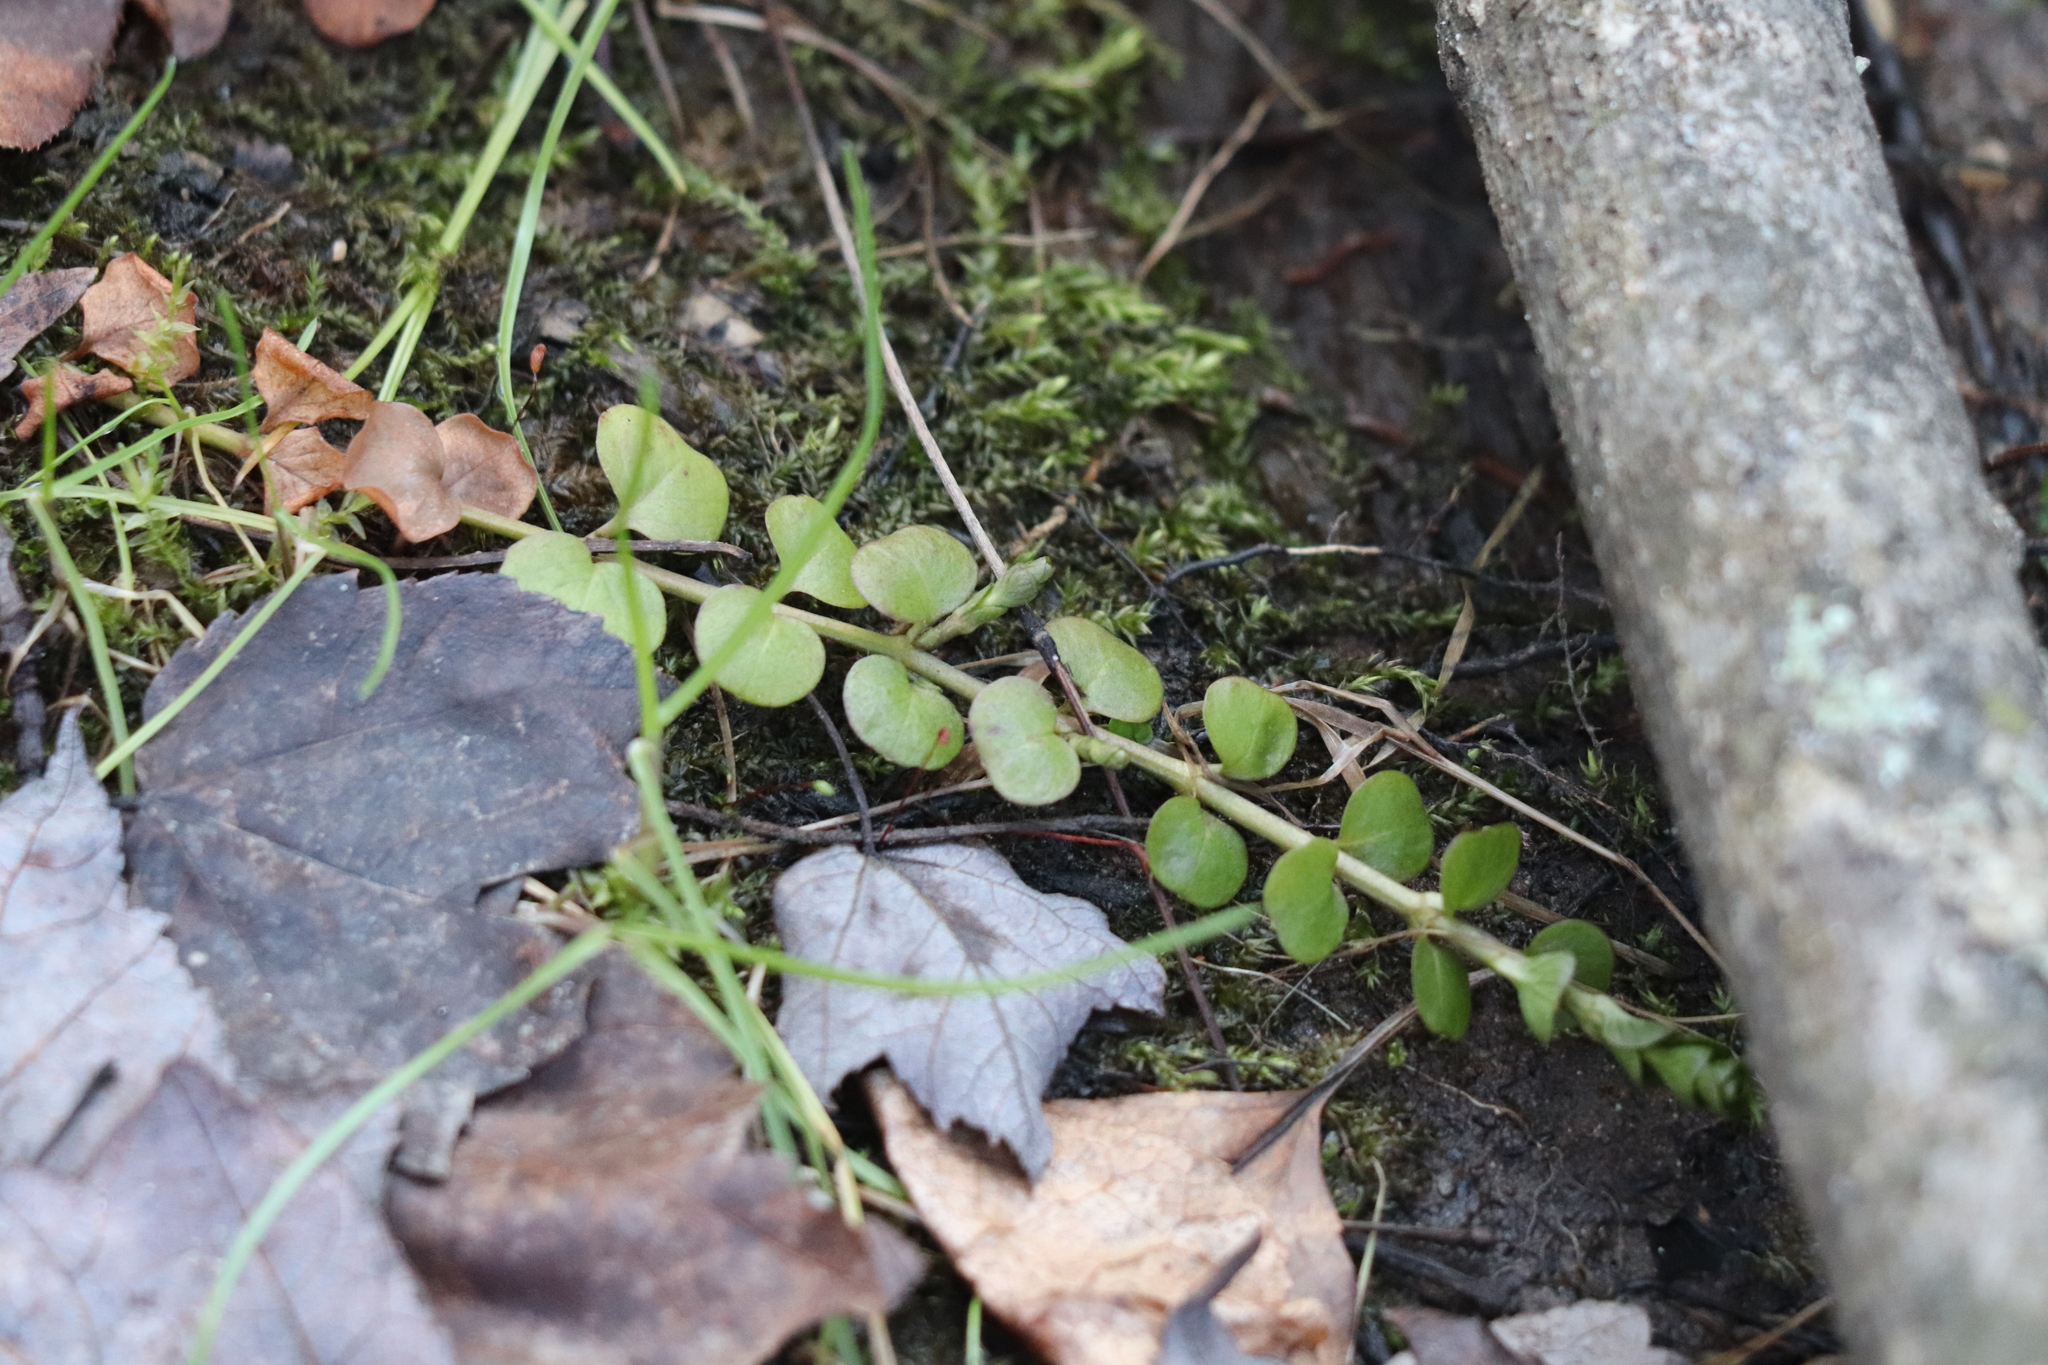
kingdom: Plantae
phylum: Tracheophyta
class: Magnoliopsida
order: Ericales
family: Primulaceae
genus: Lysimachia
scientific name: Lysimachia nummularia
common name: Moneywort
